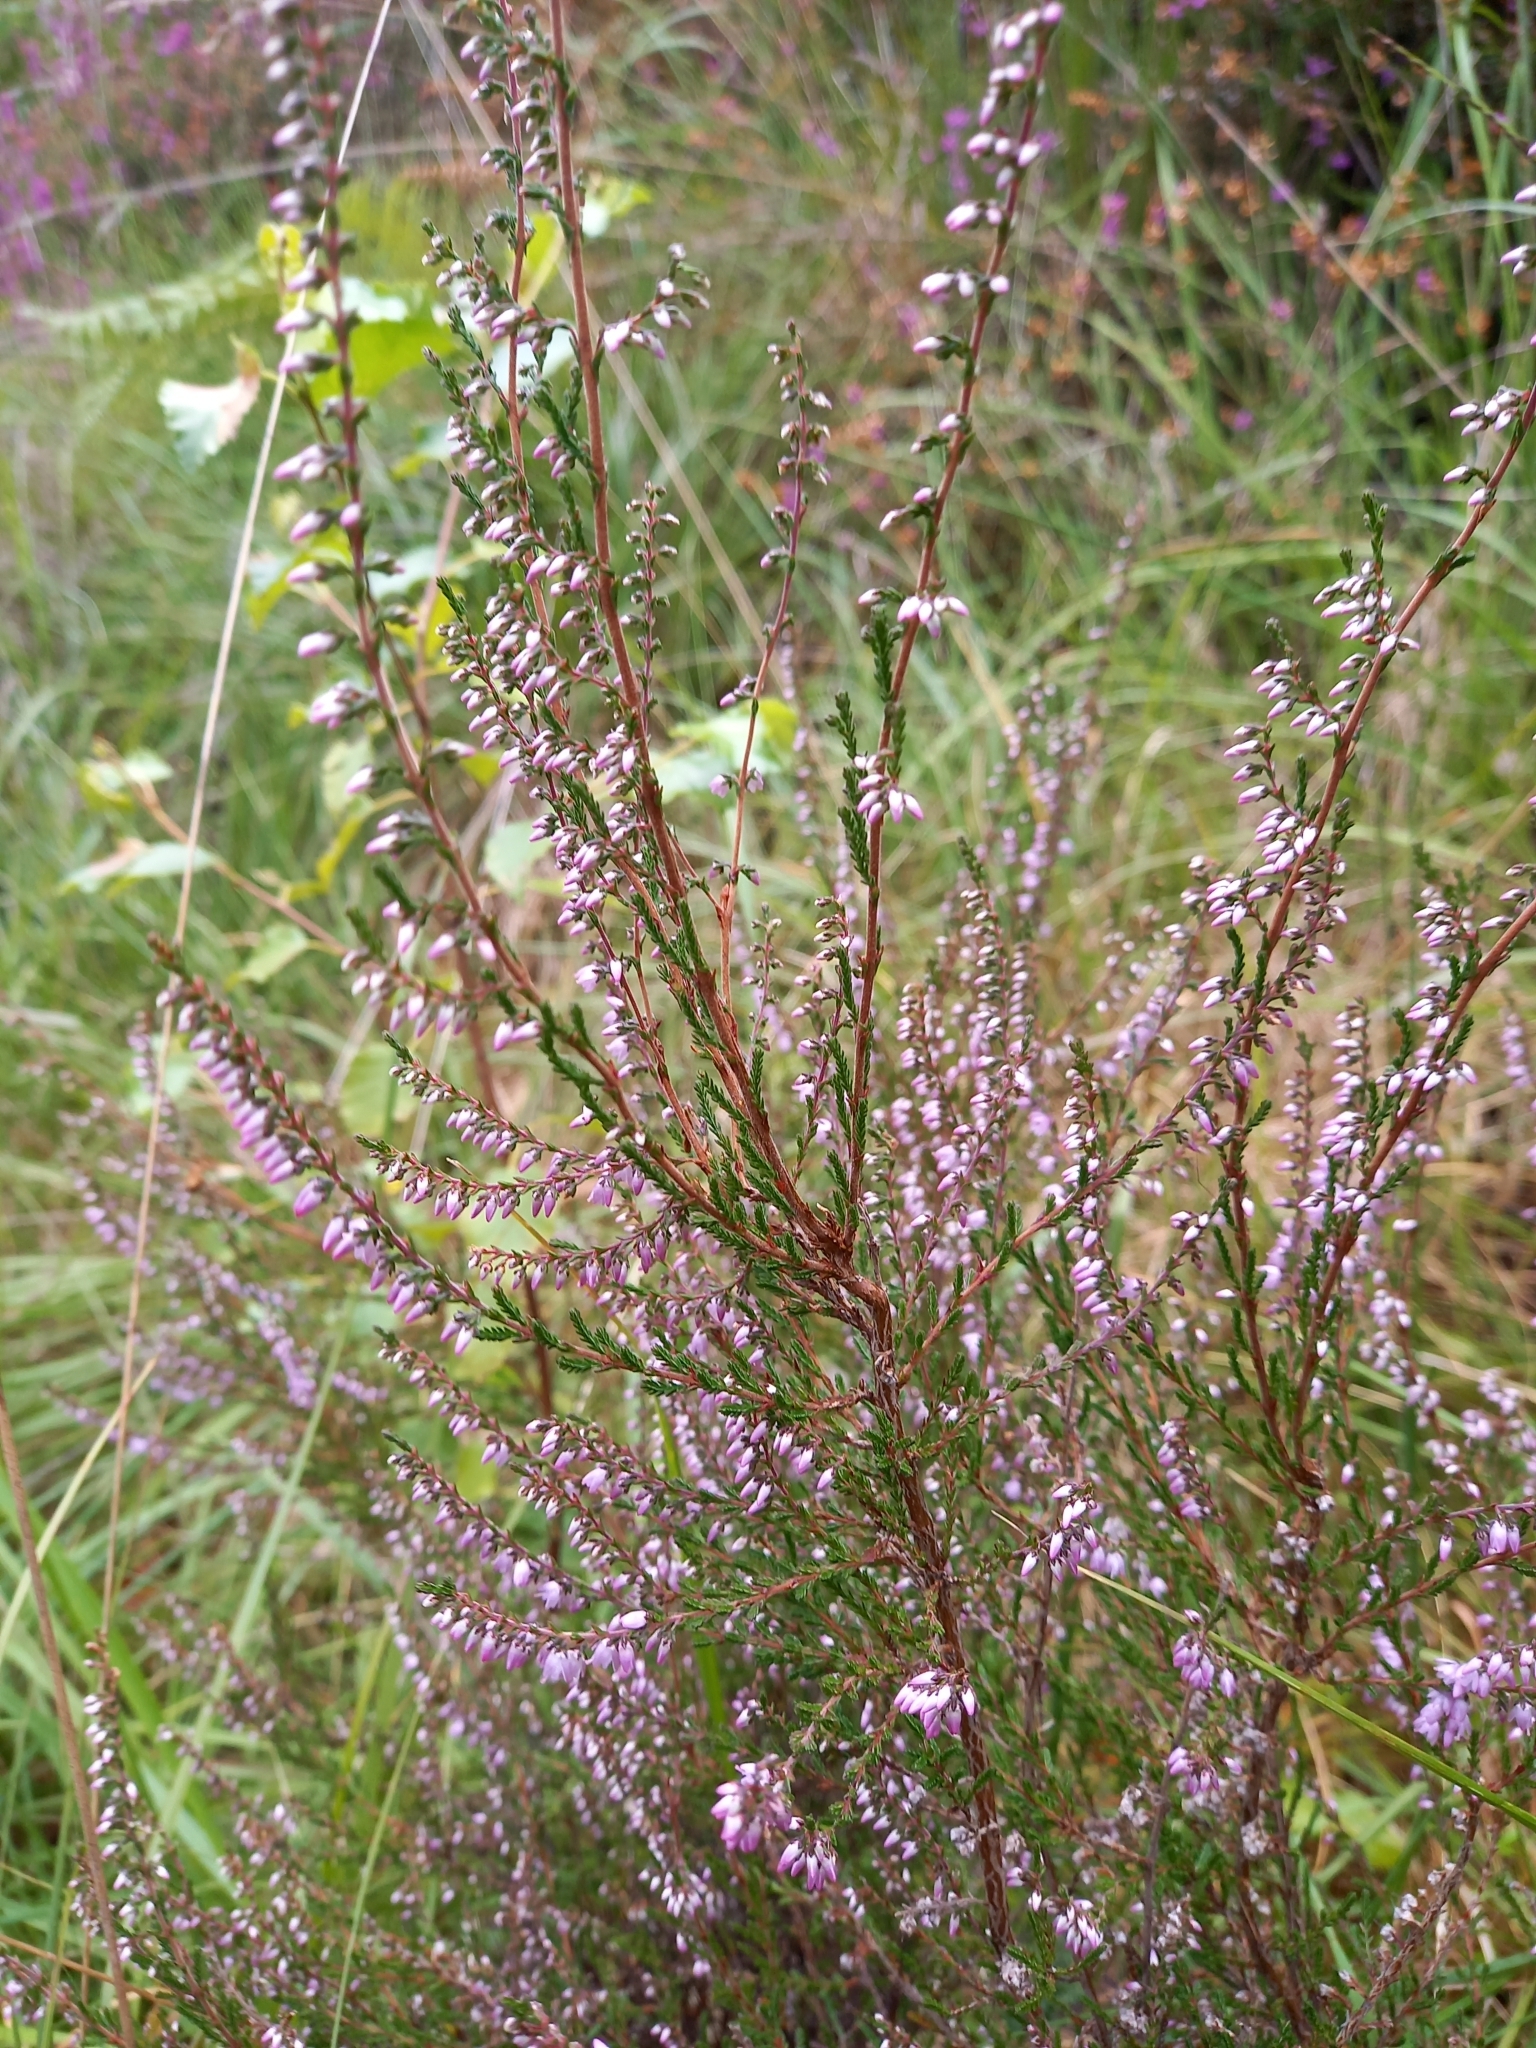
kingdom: Plantae
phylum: Tracheophyta
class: Magnoliopsida
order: Ericales
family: Ericaceae
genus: Calluna
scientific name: Calluna vulgaris
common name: Heather
